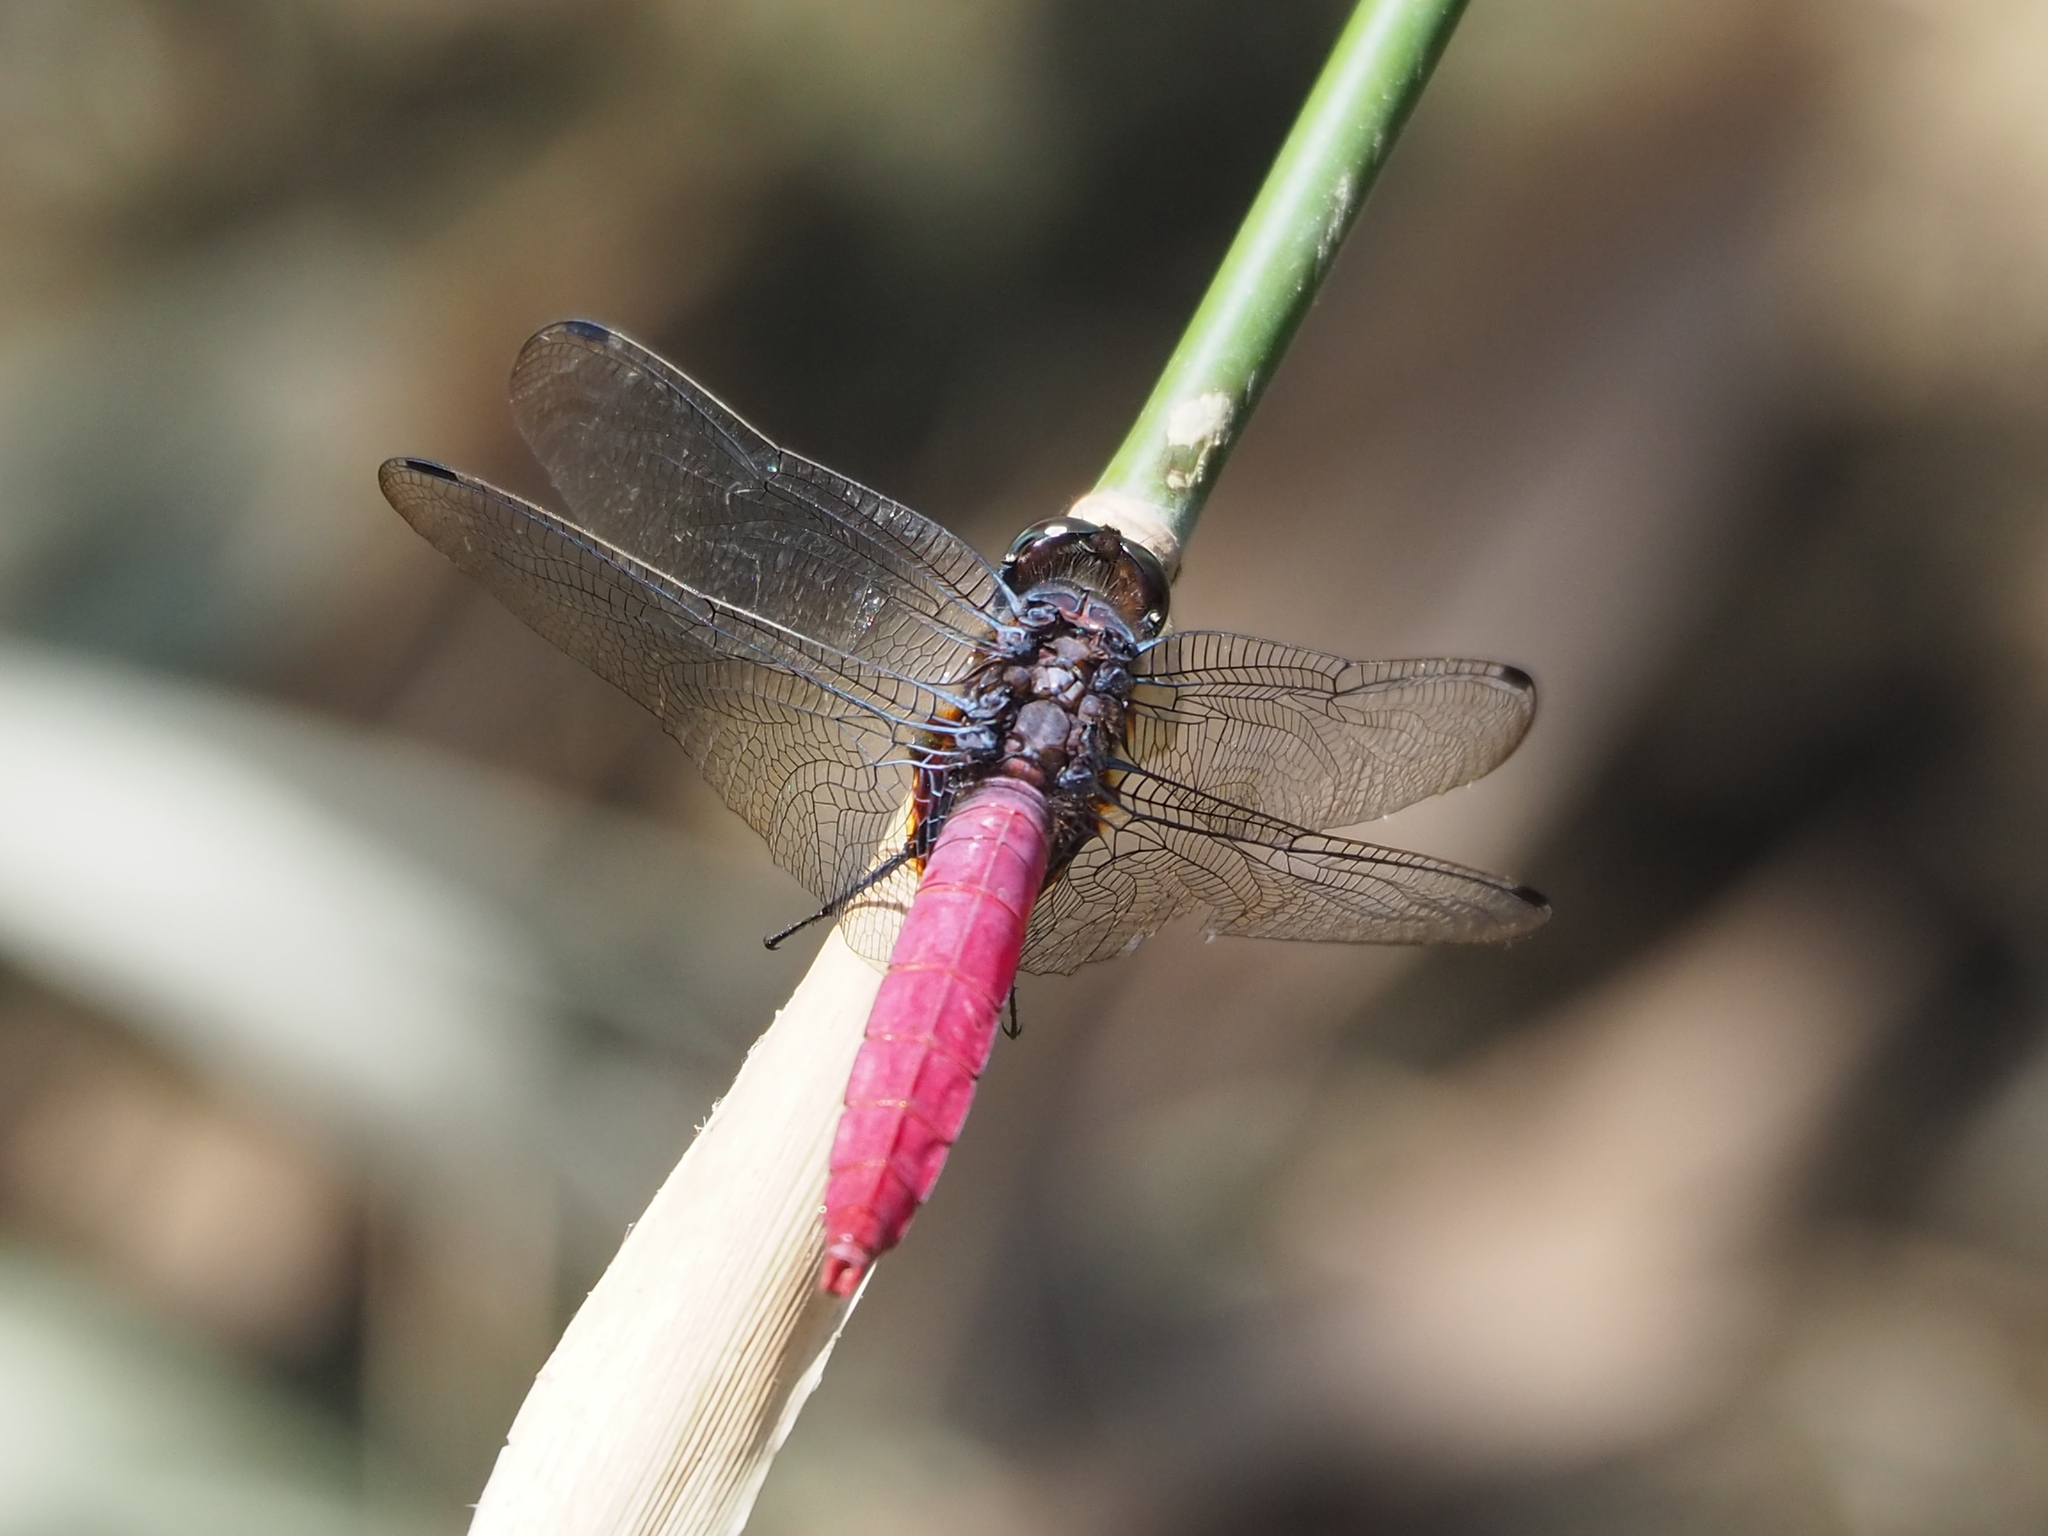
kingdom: Animalia
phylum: Arthropoda
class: Insecta
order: Odonata
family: Libellulidae
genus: Orthetrum
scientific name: Orthetrum pruinosum
